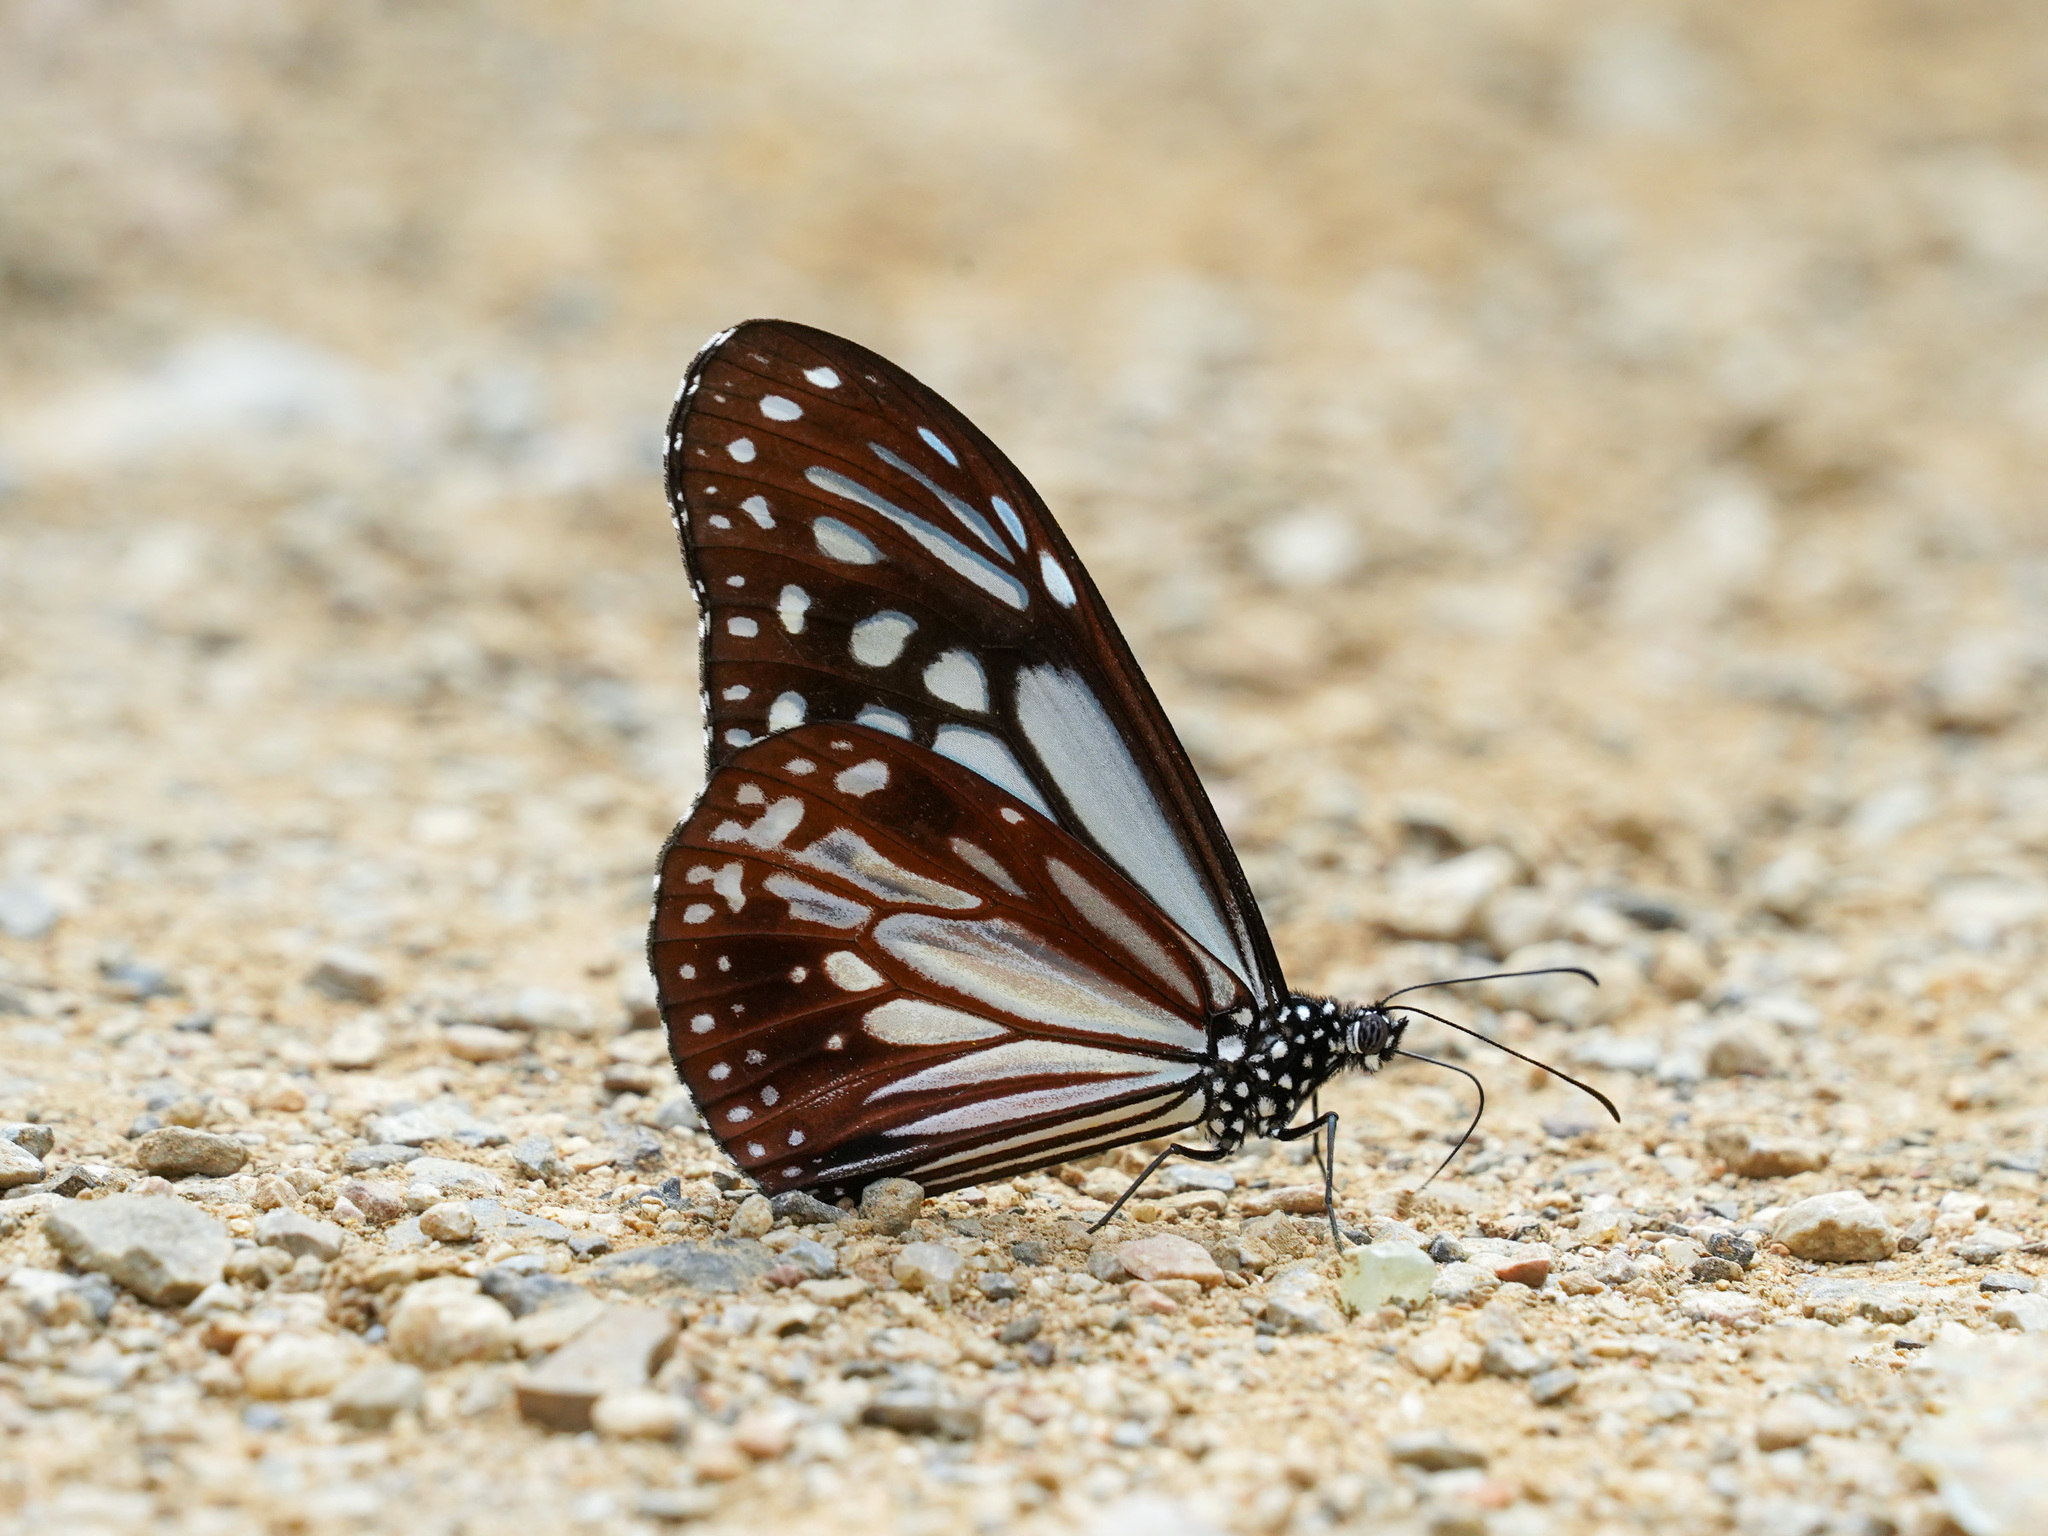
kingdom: Animalia
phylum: Arthropoda
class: Insecta
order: Lepidoptera
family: Nymphalidae
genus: Parantica
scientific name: Parantica melaneus
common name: Chocolate tiger
